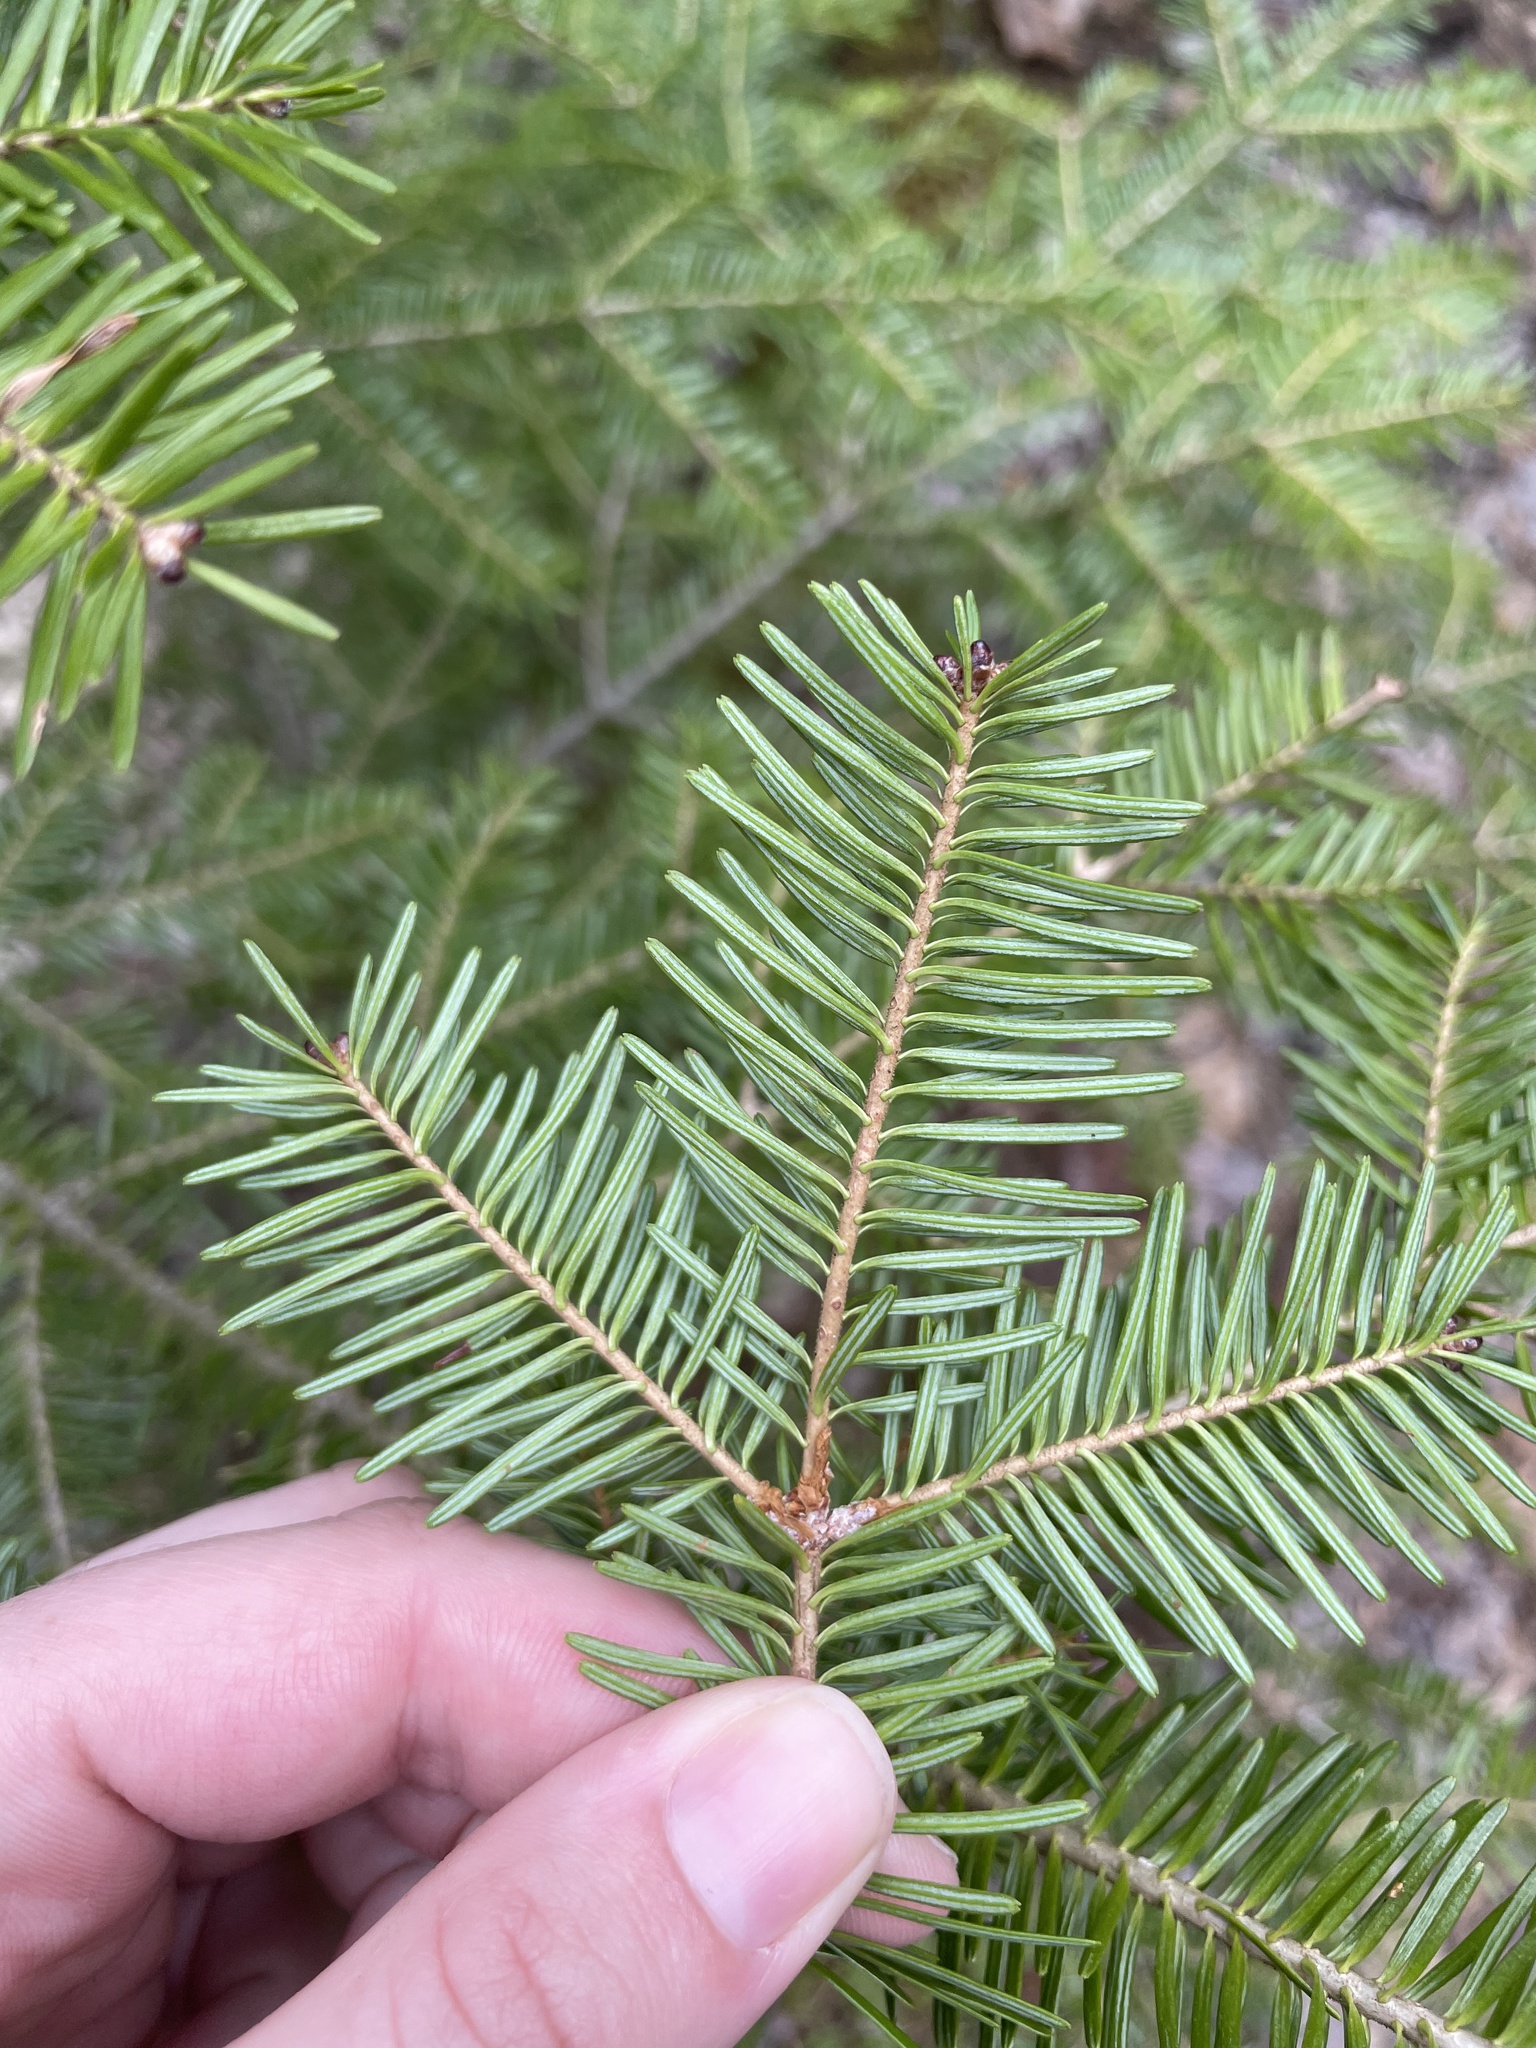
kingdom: Plantae
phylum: Tracheophyta
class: Pinopsida
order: Pinales
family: Pinaceae
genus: Abies
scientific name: Abies balsamea
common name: Balsam fir
